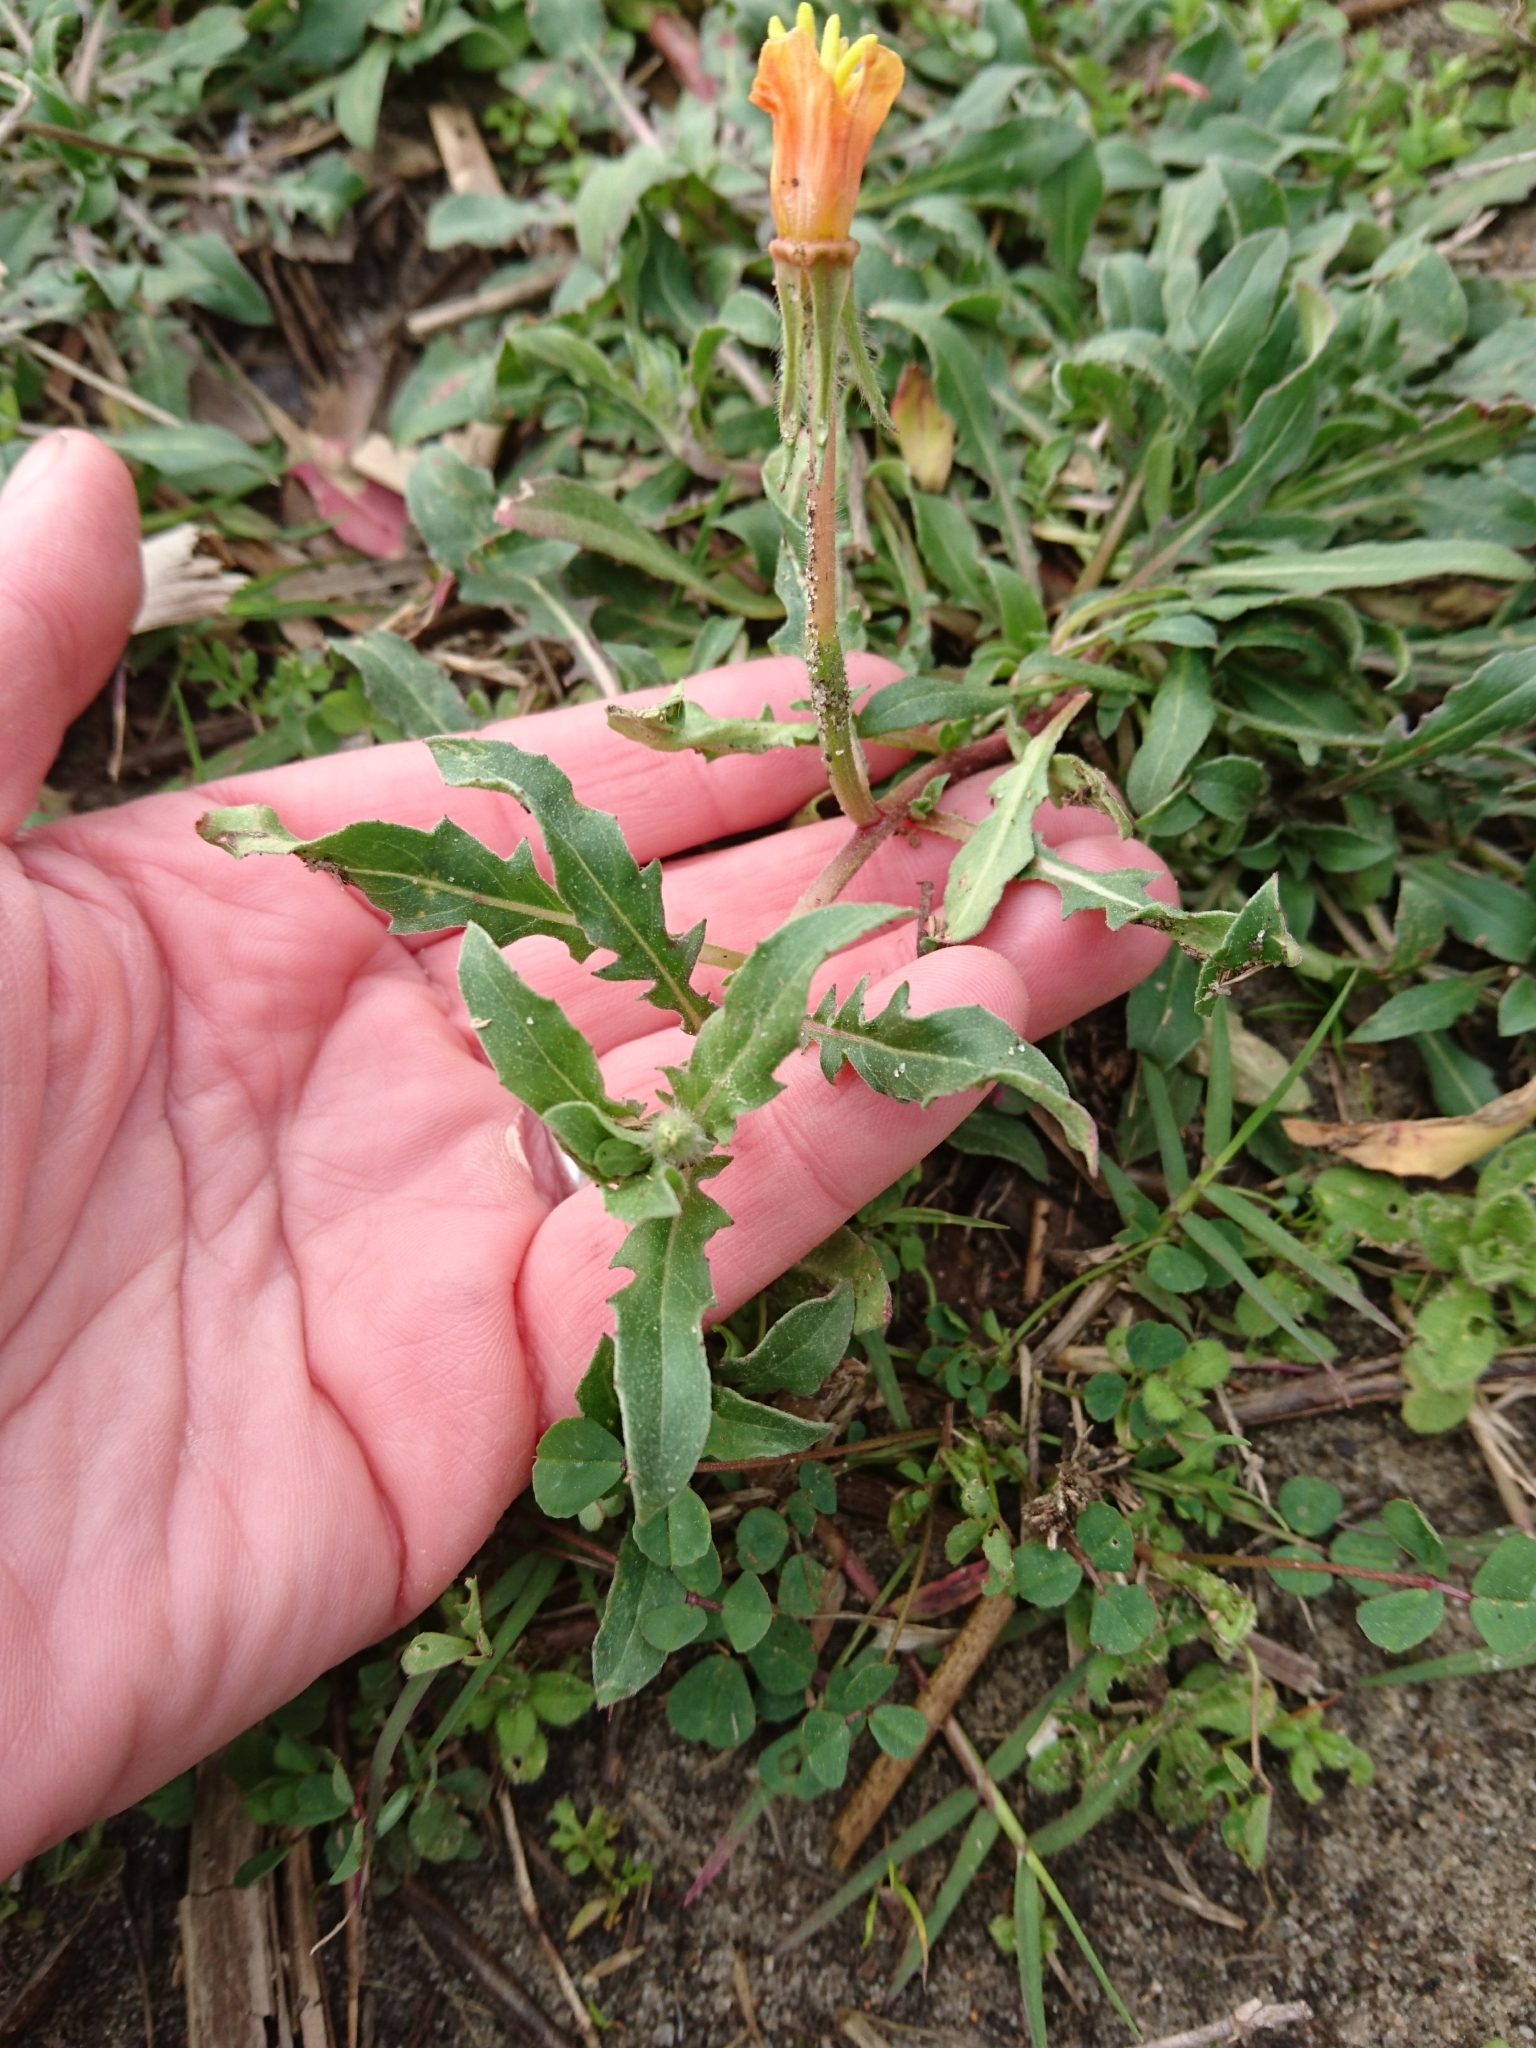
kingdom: Plantae
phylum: Tracheophyta
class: Magnoliopsida
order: Myrtales
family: Onagraceae
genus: Oenothera
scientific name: Oenothera laciniata
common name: Cut-leaved evening-primrose
